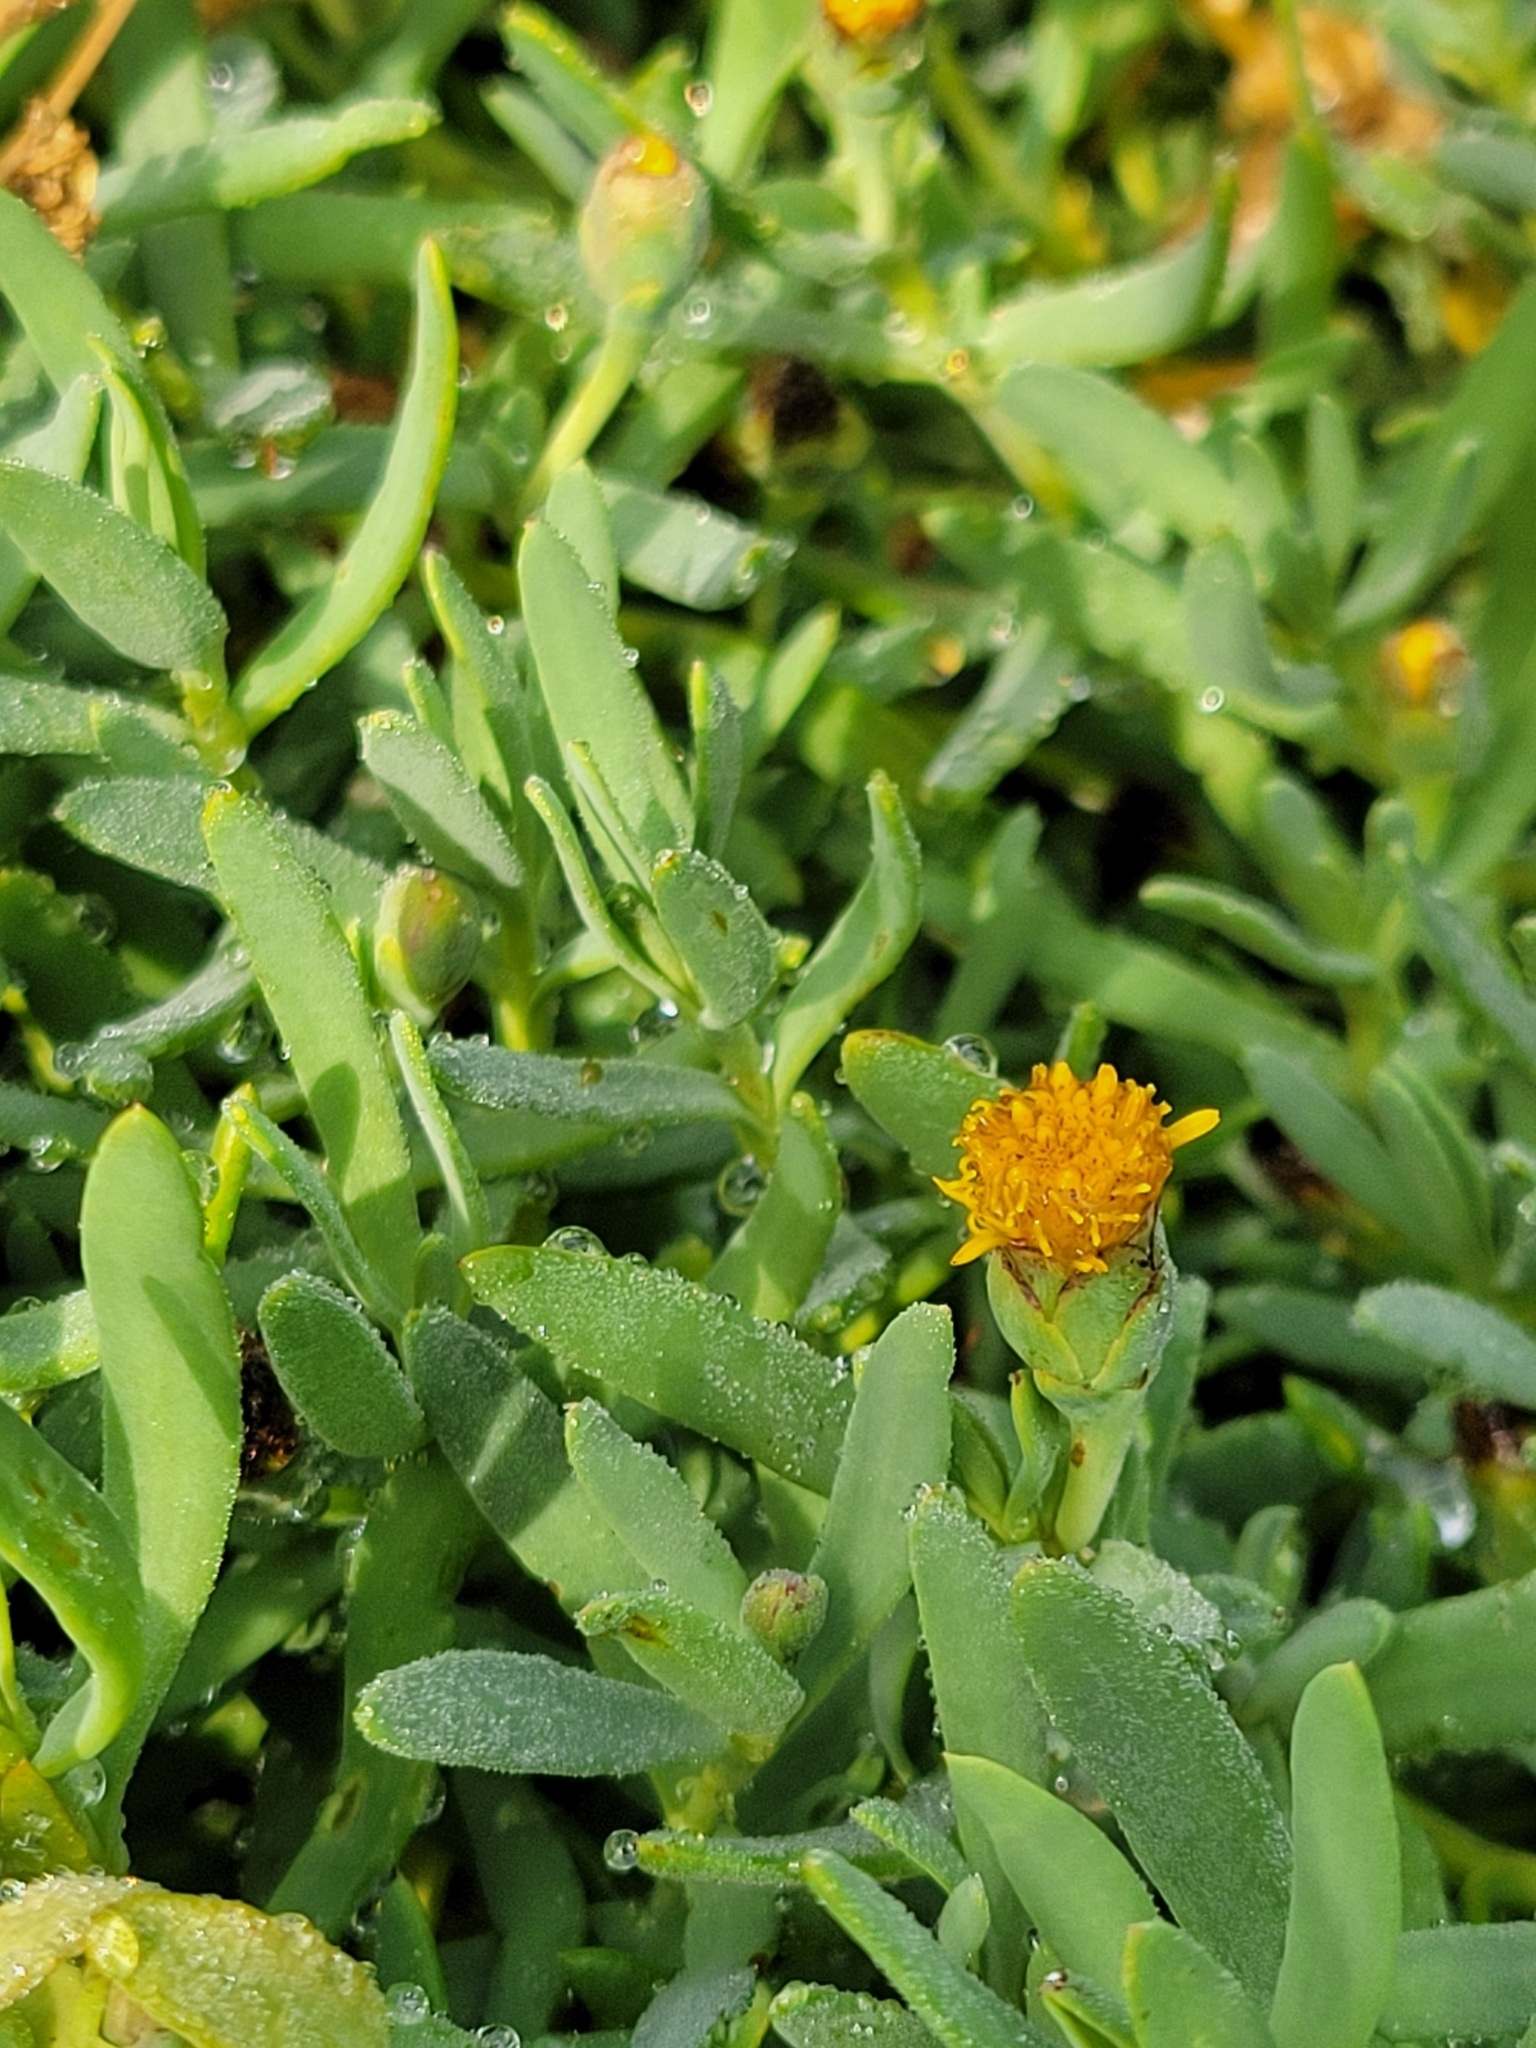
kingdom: Plantae
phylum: Tracheophyta
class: Magnoliopsida
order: Asterales
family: Asteraceae
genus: Jaumea
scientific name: Jaumea carnosa
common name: Fleshy jaumea
